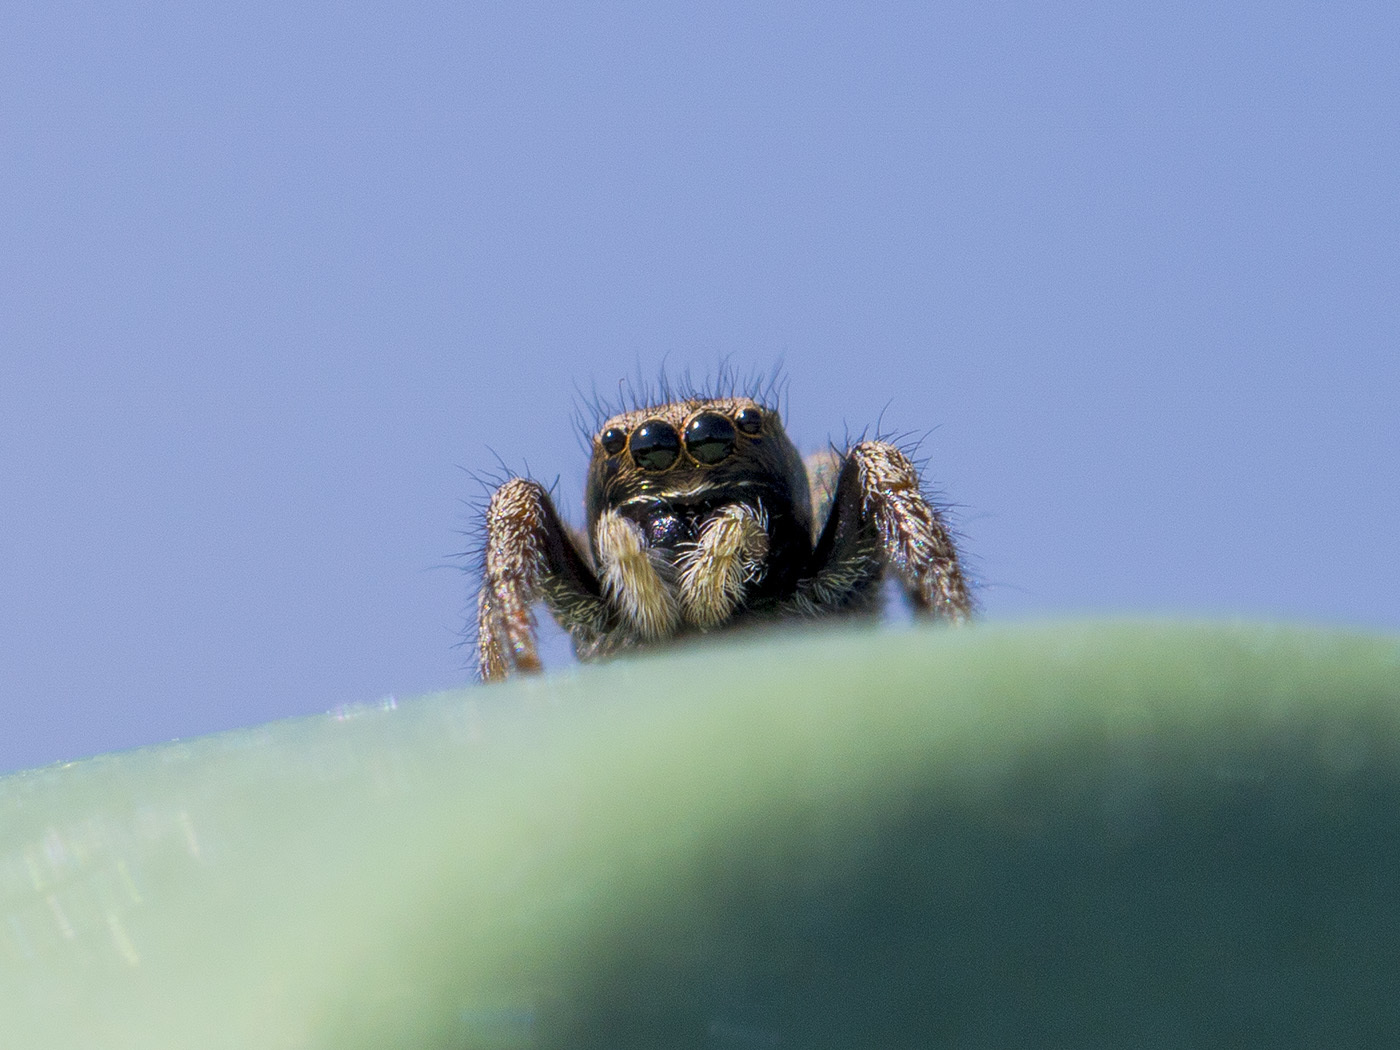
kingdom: Animalia
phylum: Arthropoda
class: Arachnida
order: Araneae
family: Salticidae
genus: Pellenes
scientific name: Pellenes epularis
